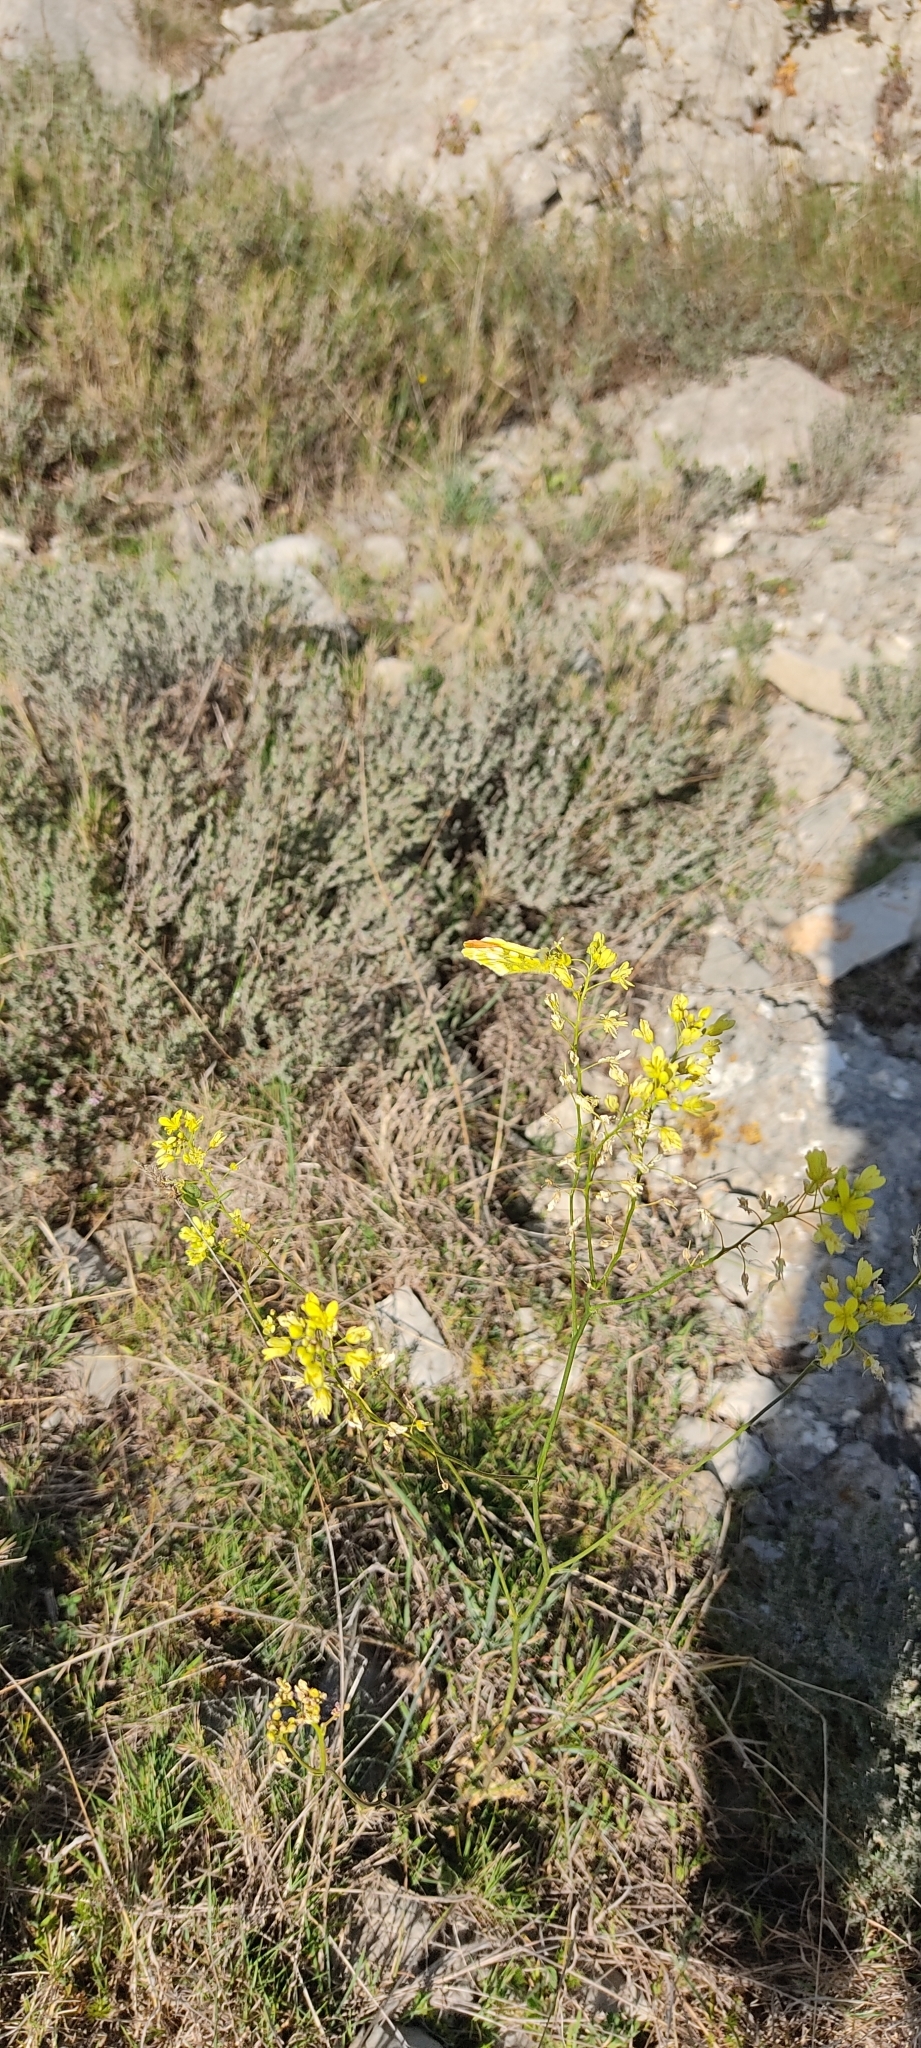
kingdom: Animalia
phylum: Arthropoda
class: Insecta
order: Lepidoptera
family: Pieridae
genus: Anthocharis
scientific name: Anthocharis euphenoides
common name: Provence orange-tip
